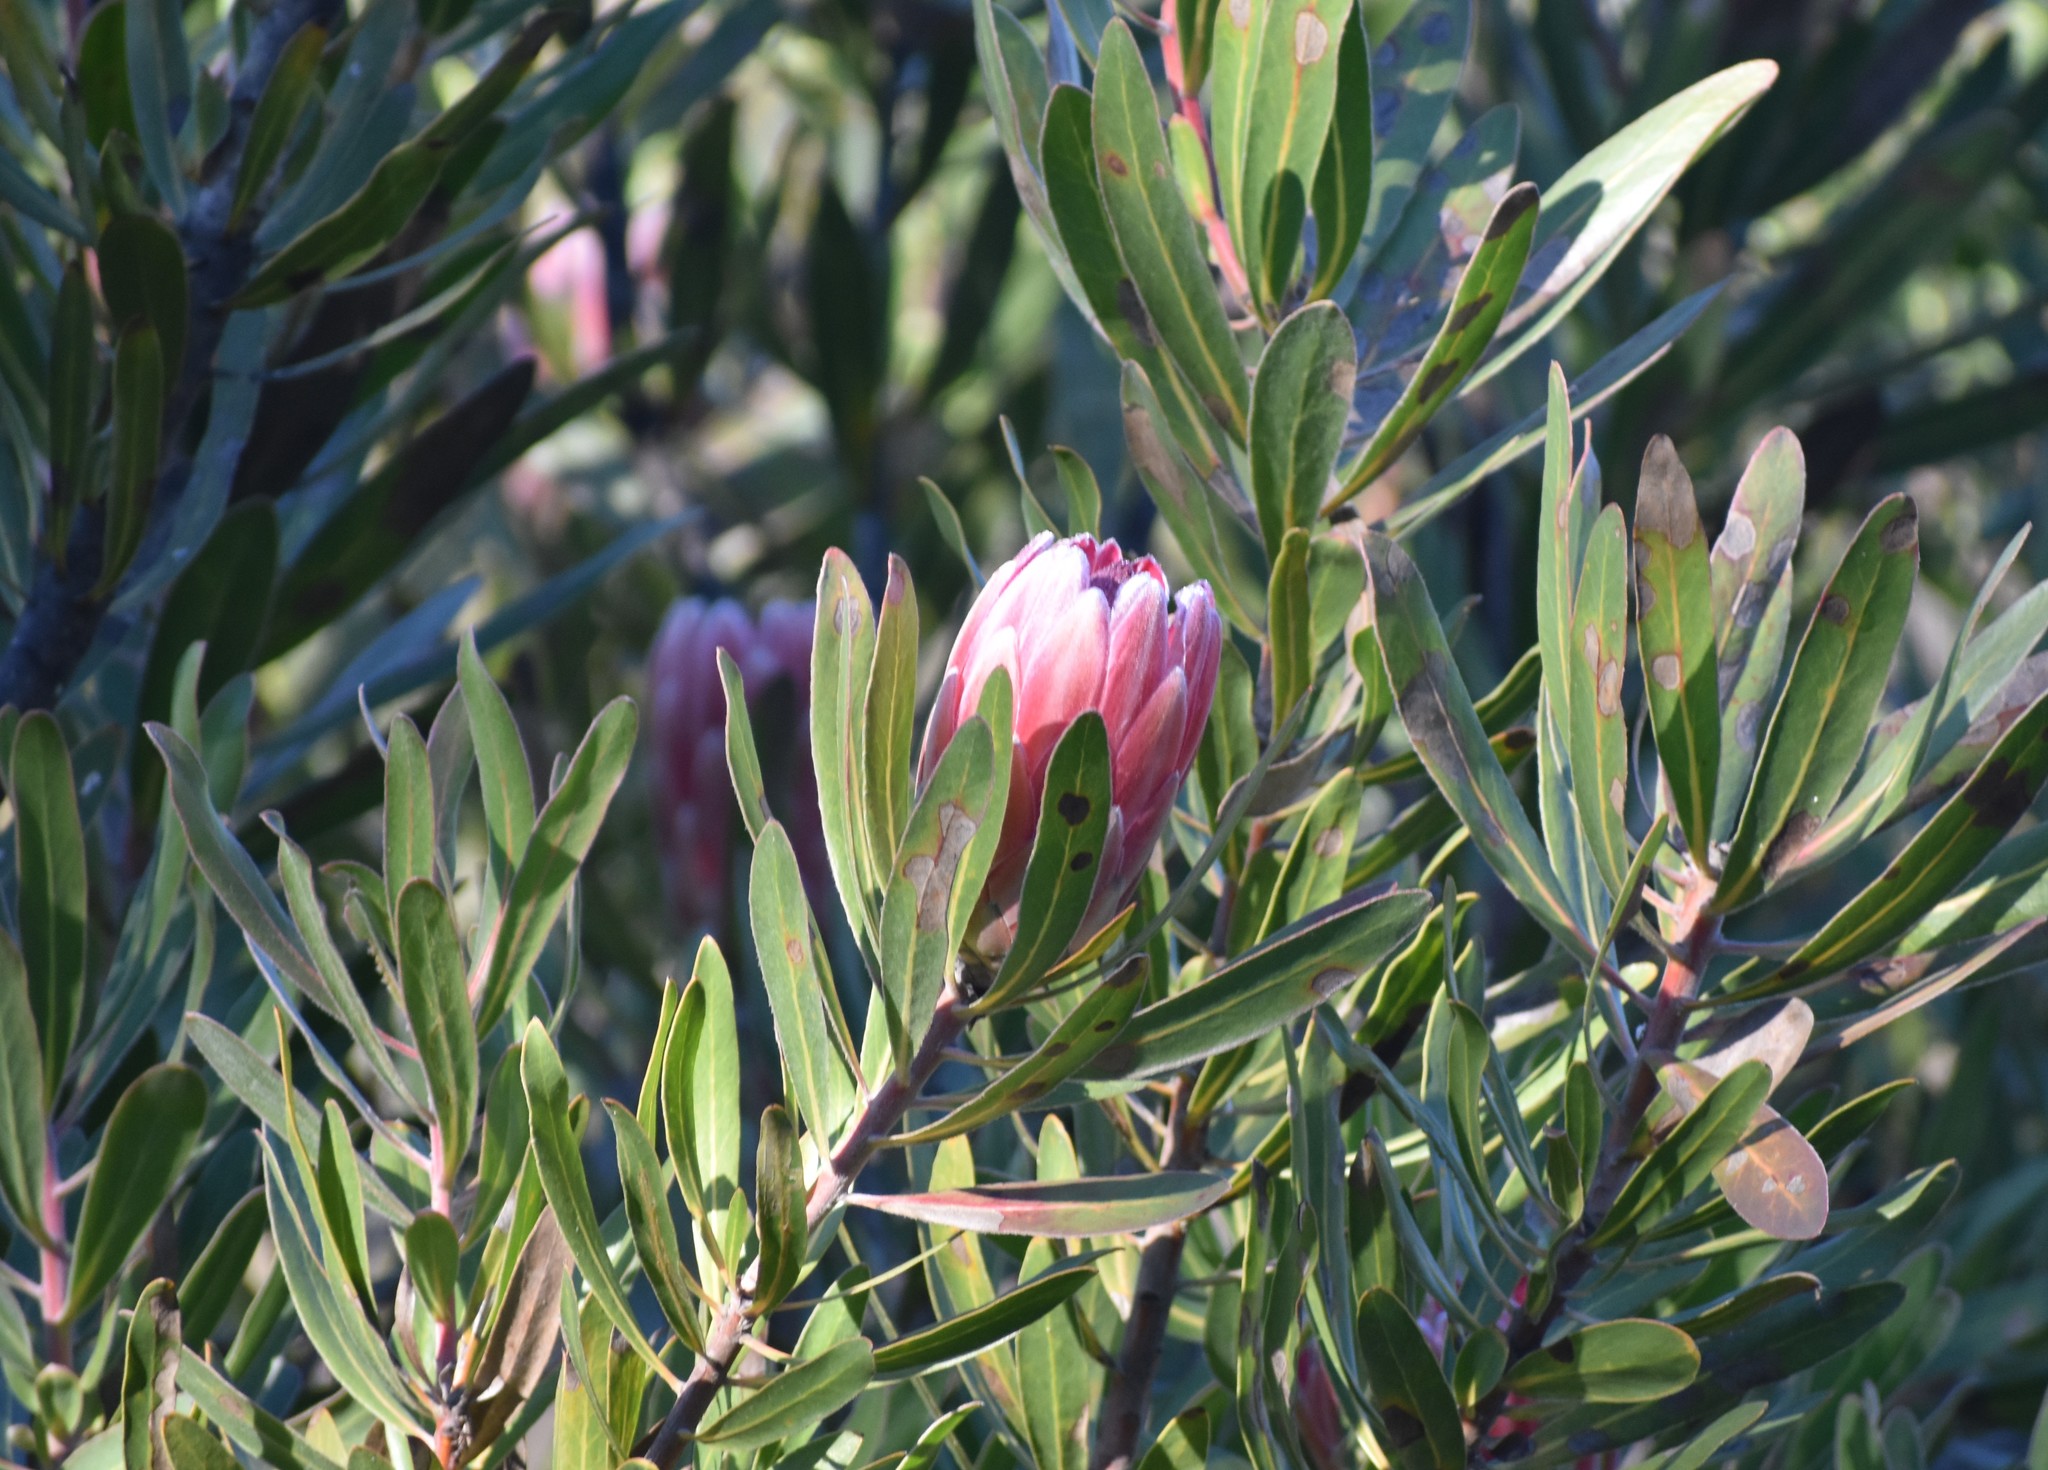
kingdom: Plantae
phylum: Tracheophyta
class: Magnoliopsida
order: Proteales
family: Proteaceae
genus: Protea
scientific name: Protea
